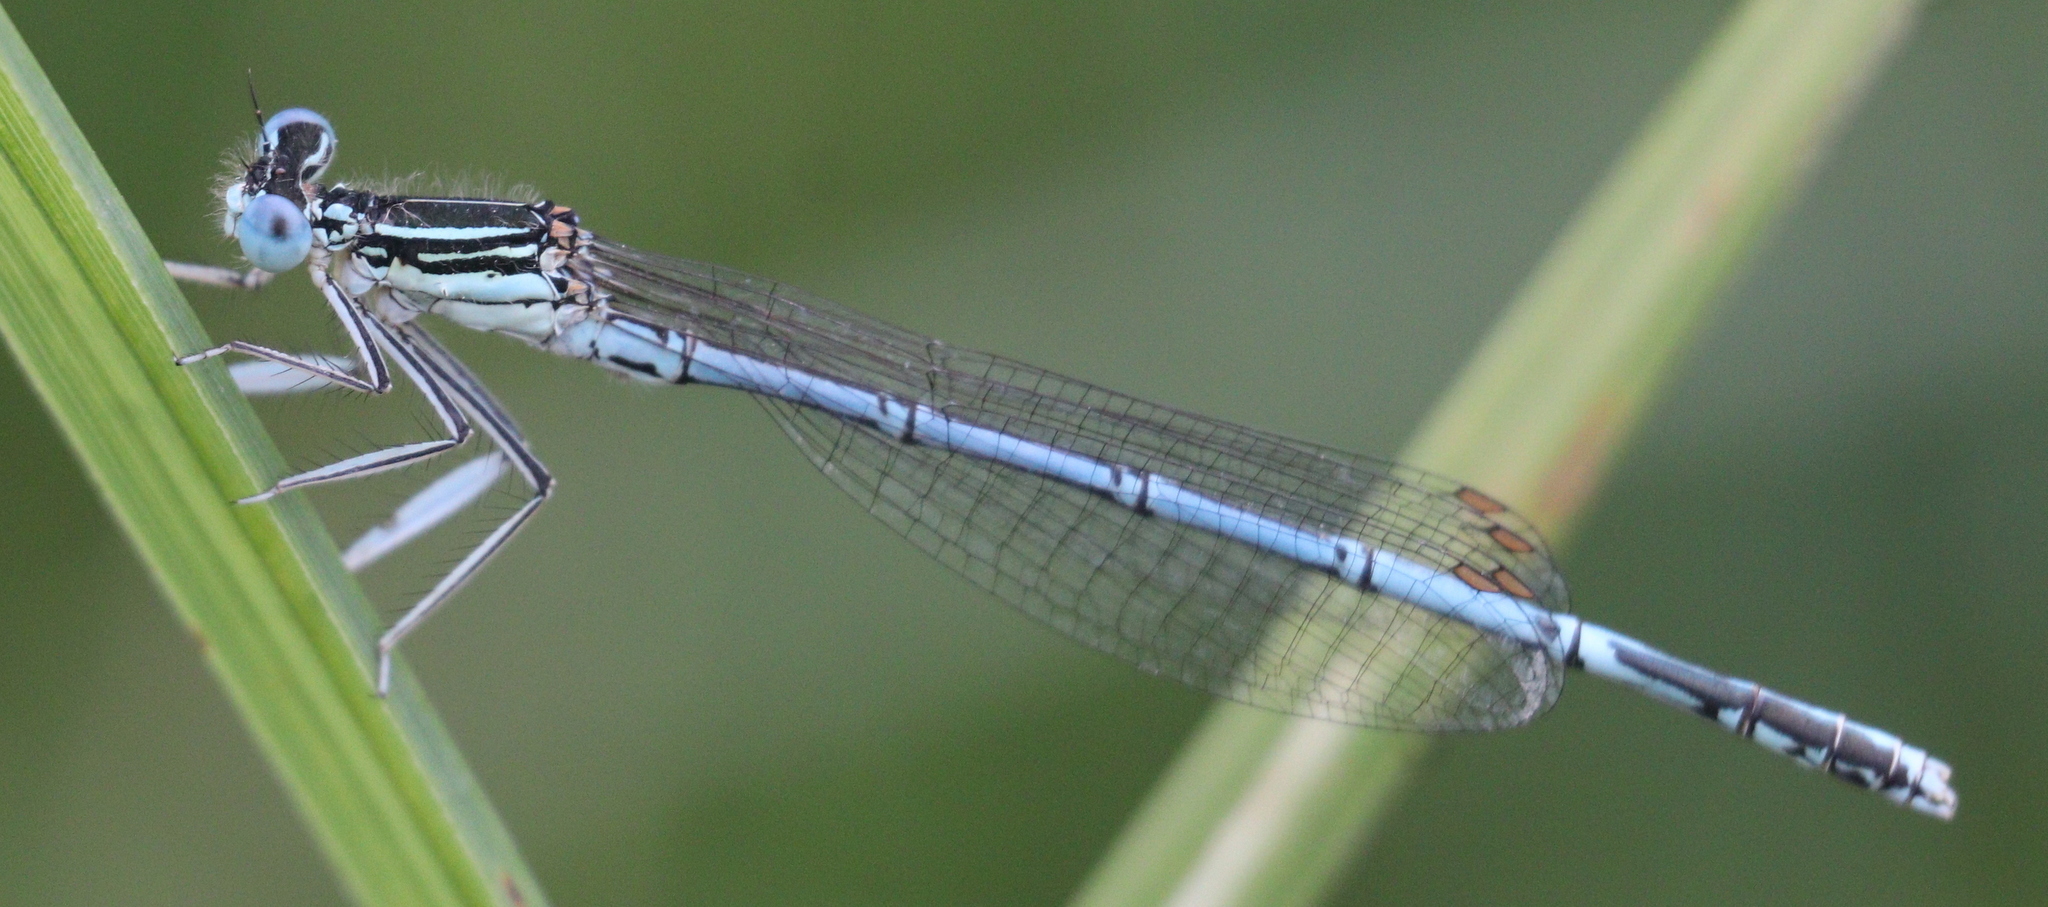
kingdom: Animalia
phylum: Arthropoda
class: Insecta
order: Odonata
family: Platycnemididae
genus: Platycnemis
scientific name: Platycnemis pennipes
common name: White-legged damselfly
